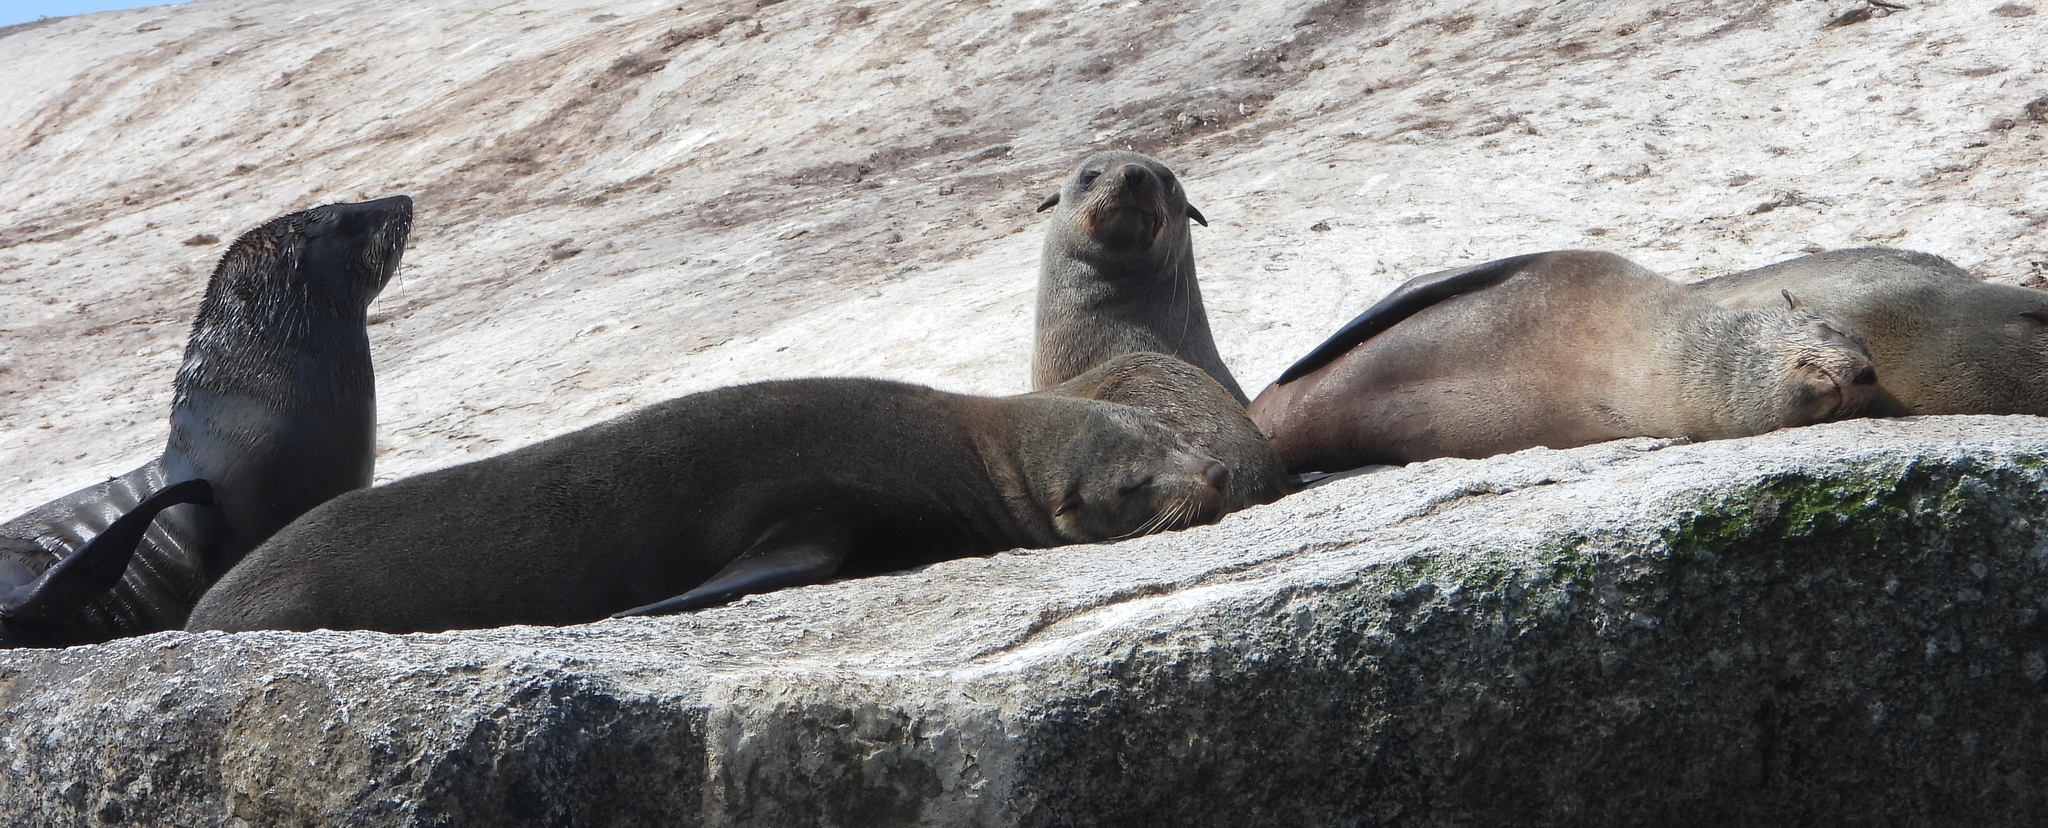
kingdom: Animalia
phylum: Chordata
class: Mammalia
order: Carnivora
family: Otariidae
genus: Arctocephalus
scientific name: Arctocephalus pusillus
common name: Brown fur seal
